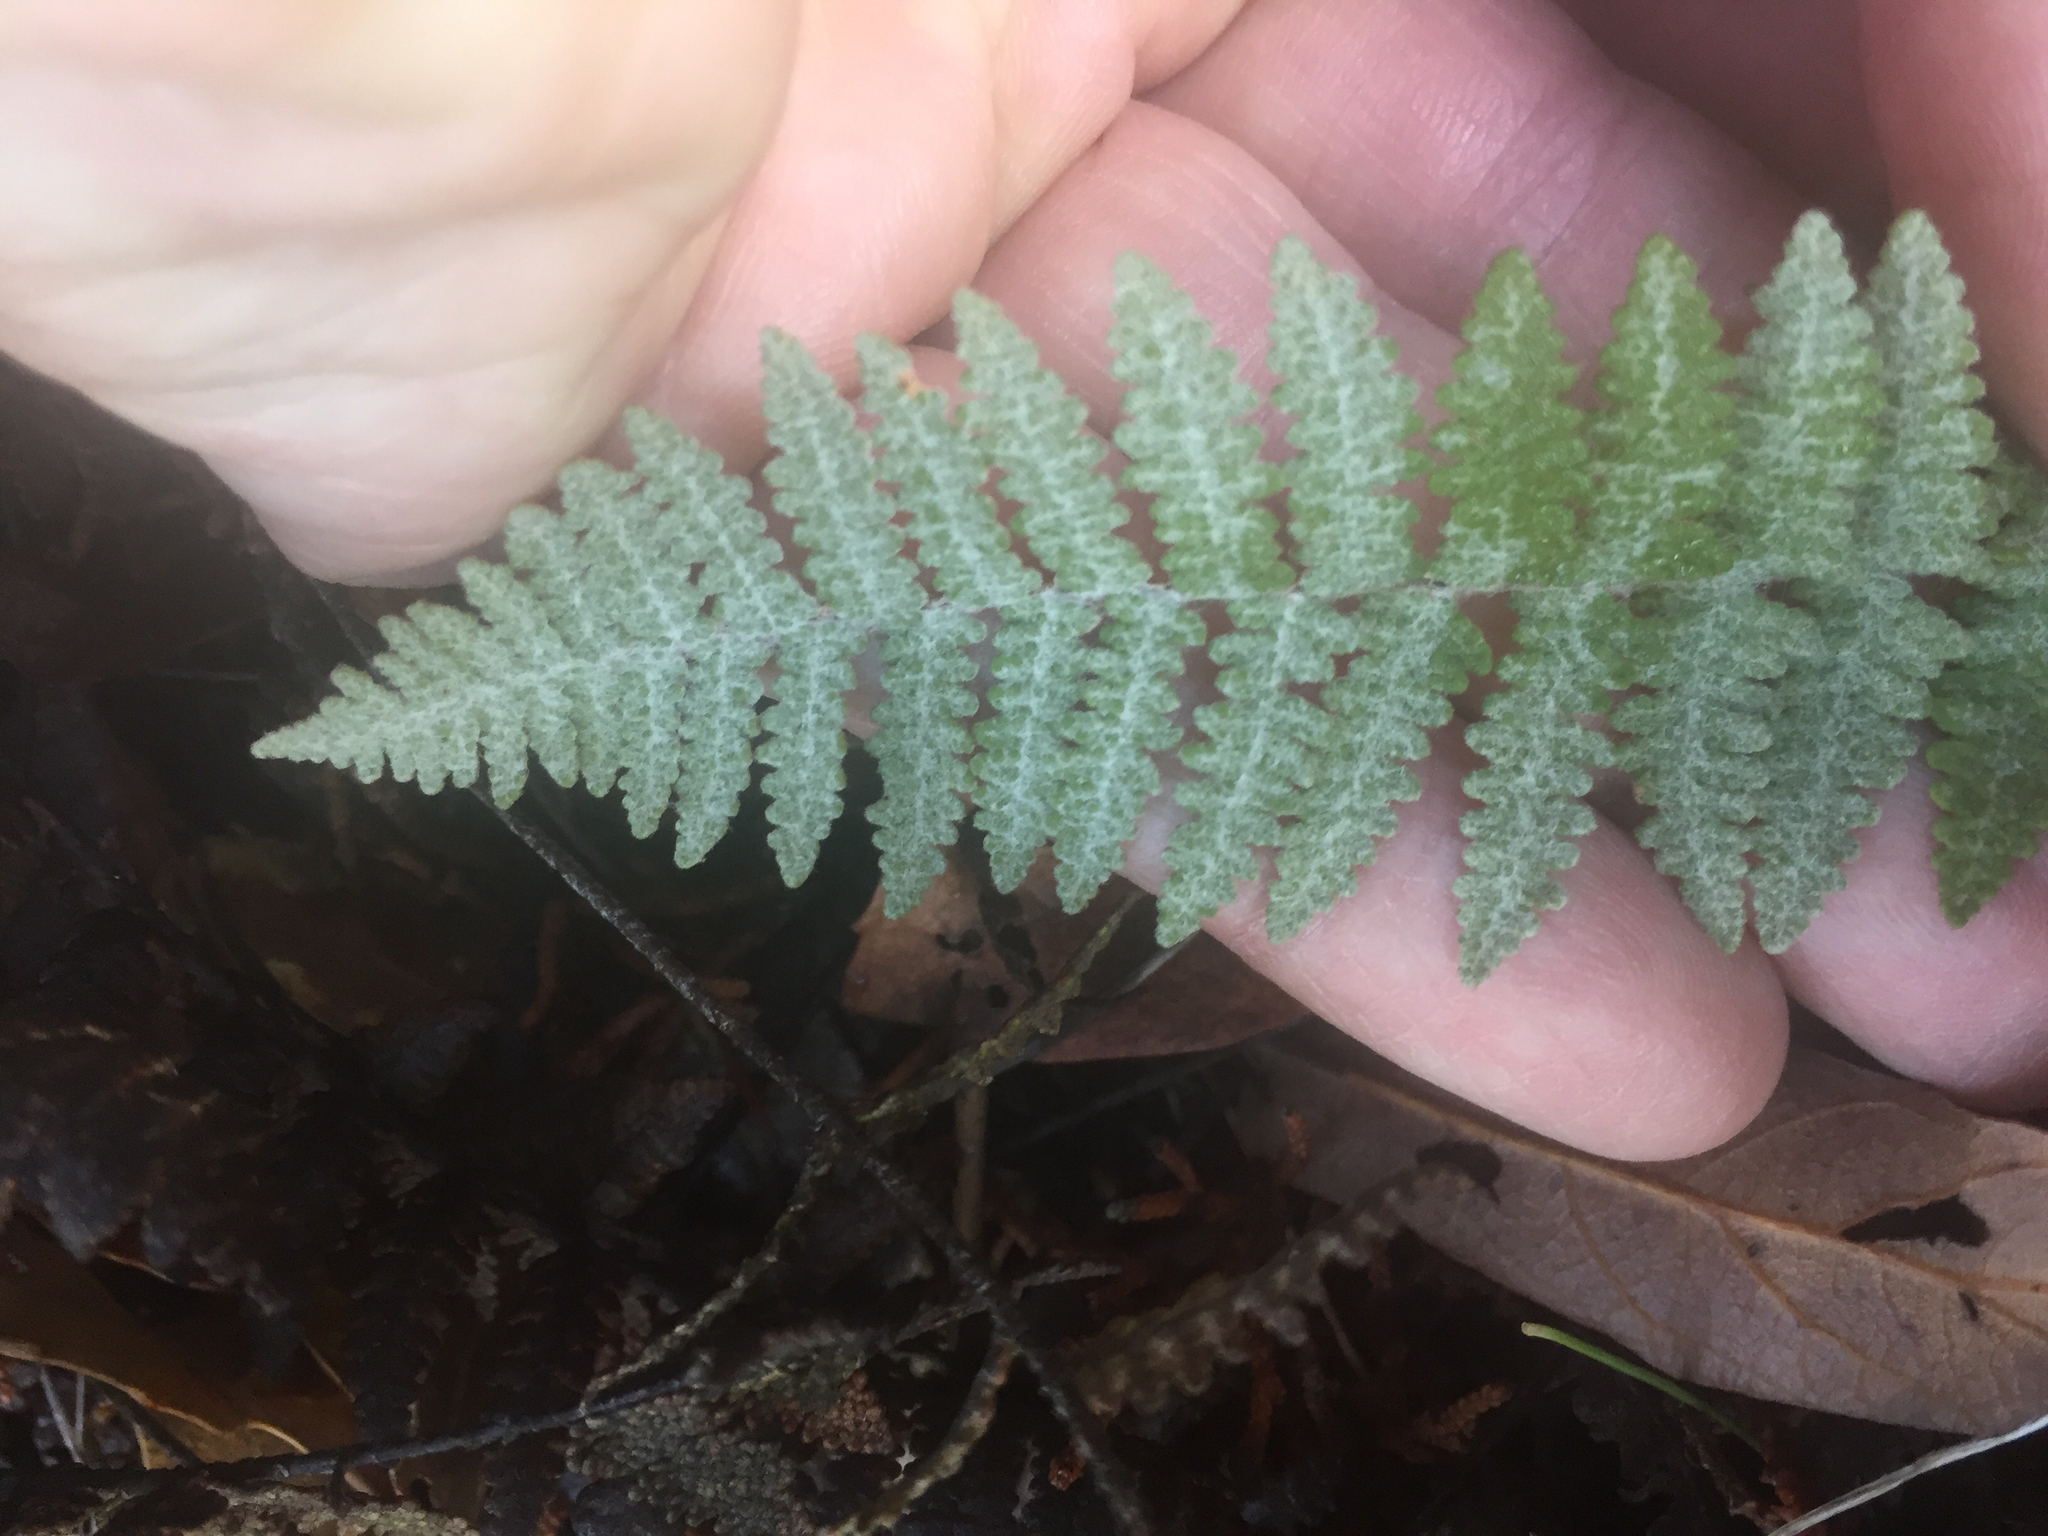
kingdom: Plantae
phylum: Tracheophyta
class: Polypodiopsida
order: Polypodiales
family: Pteridaceae
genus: Myriopteris
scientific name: Myriopteris lindheimeri
